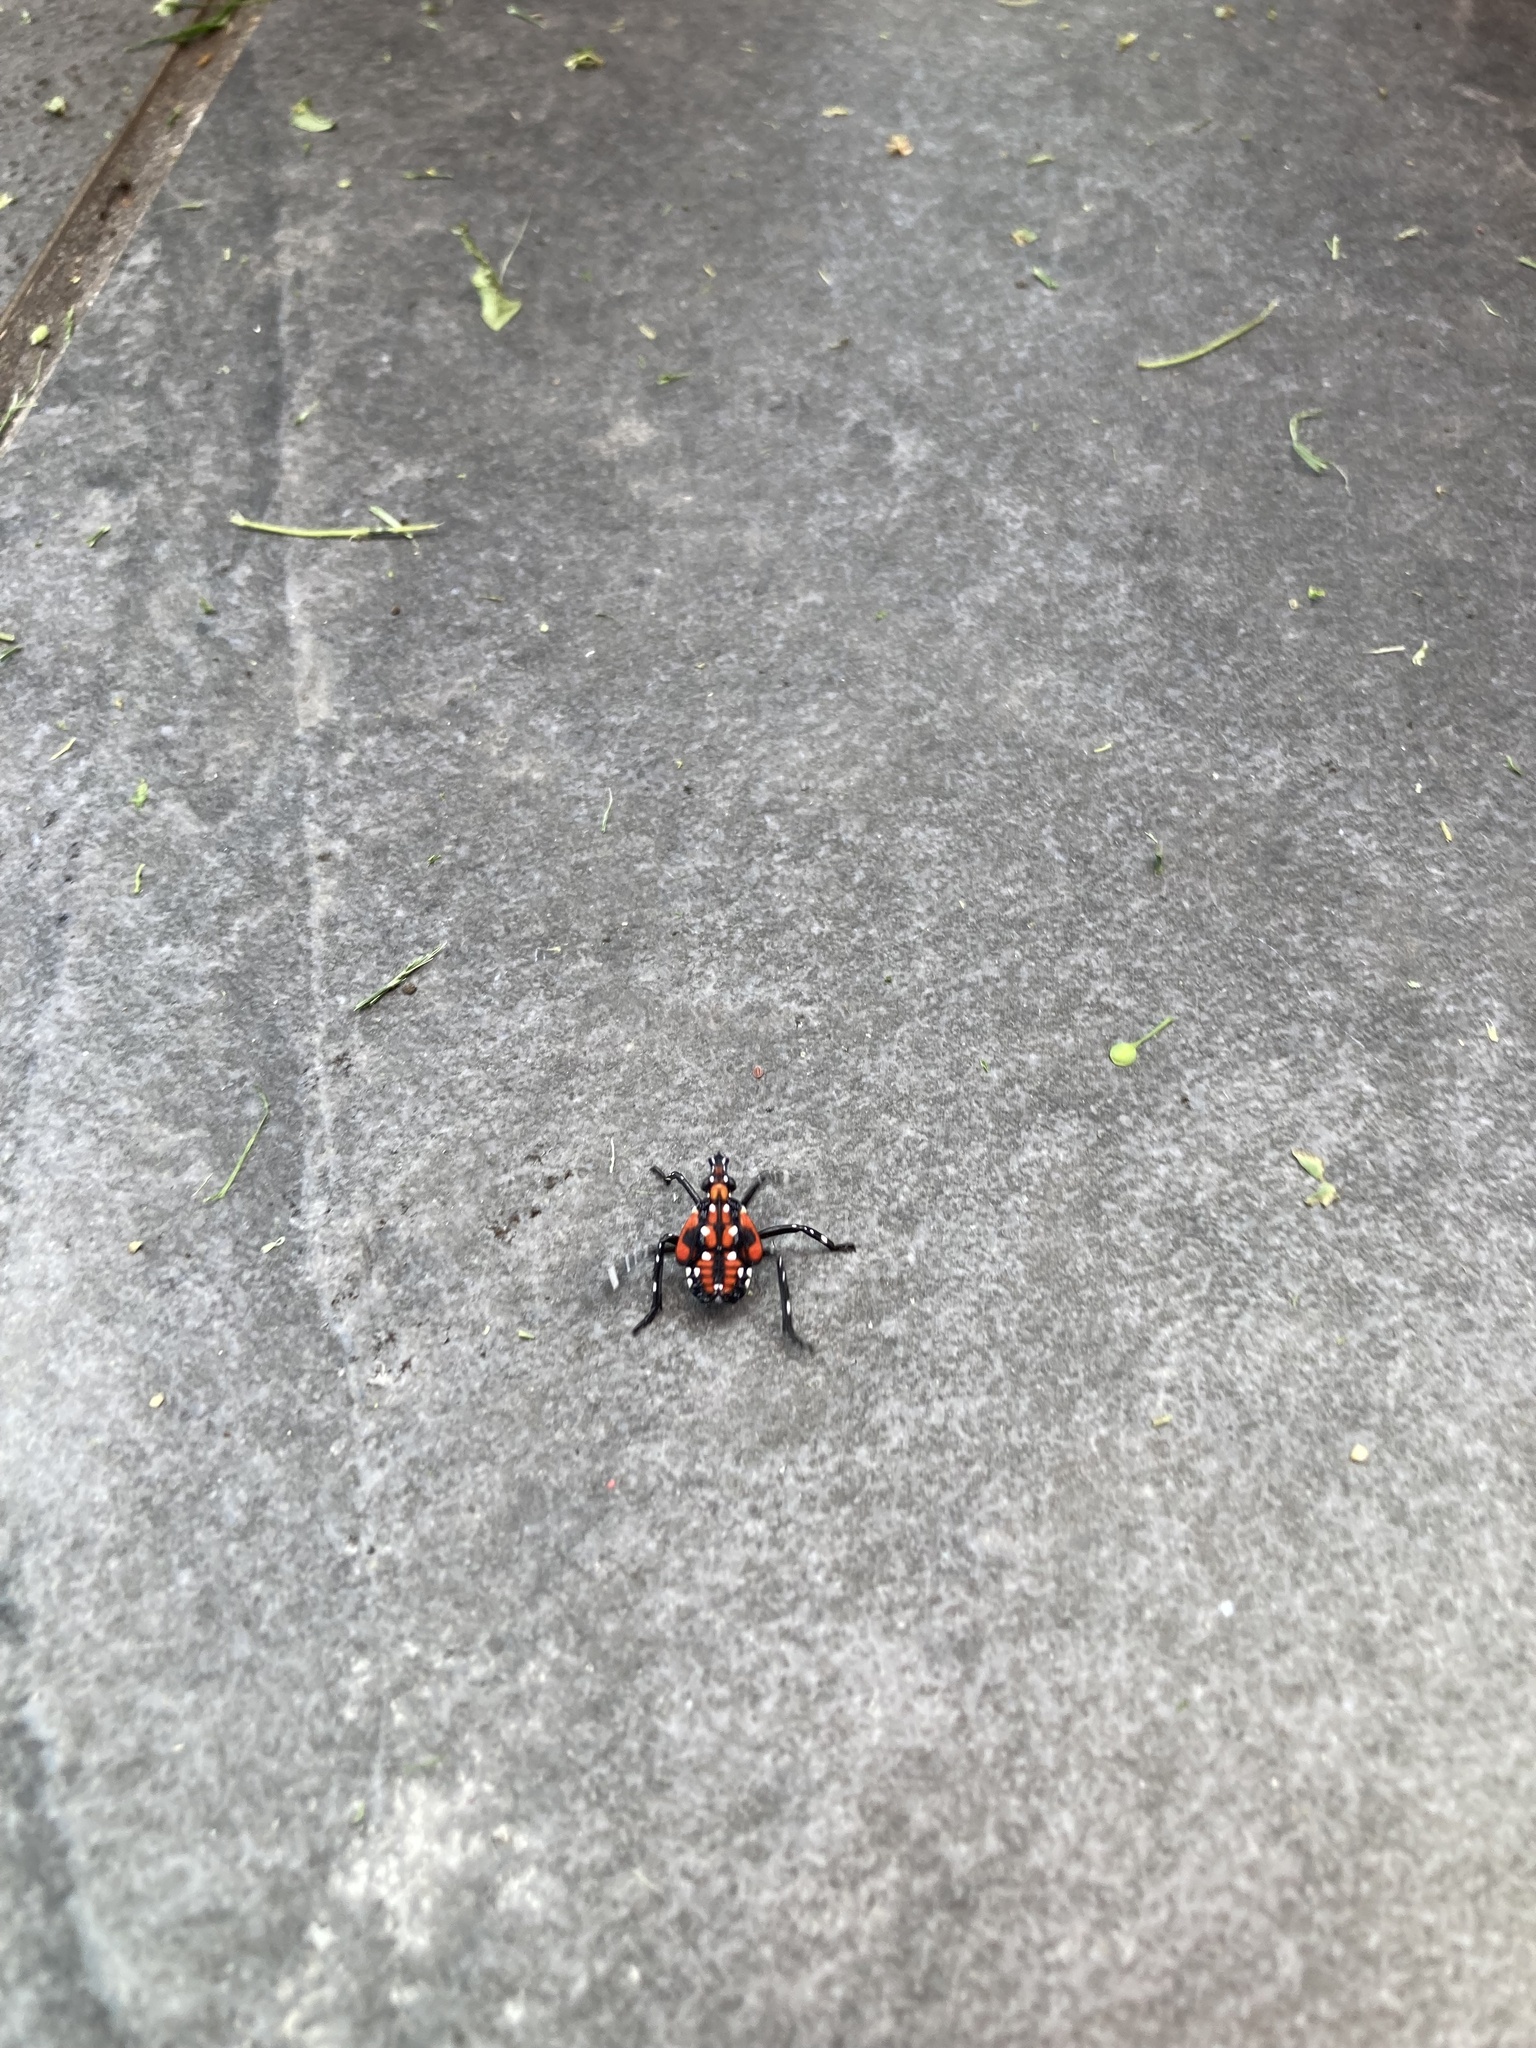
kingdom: Animalia
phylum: Arthropoda
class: Insecta
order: Hemiptera
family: Fulgoridae
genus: Lycorma
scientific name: Lycorma delicatula
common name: Spotted lanternfly
